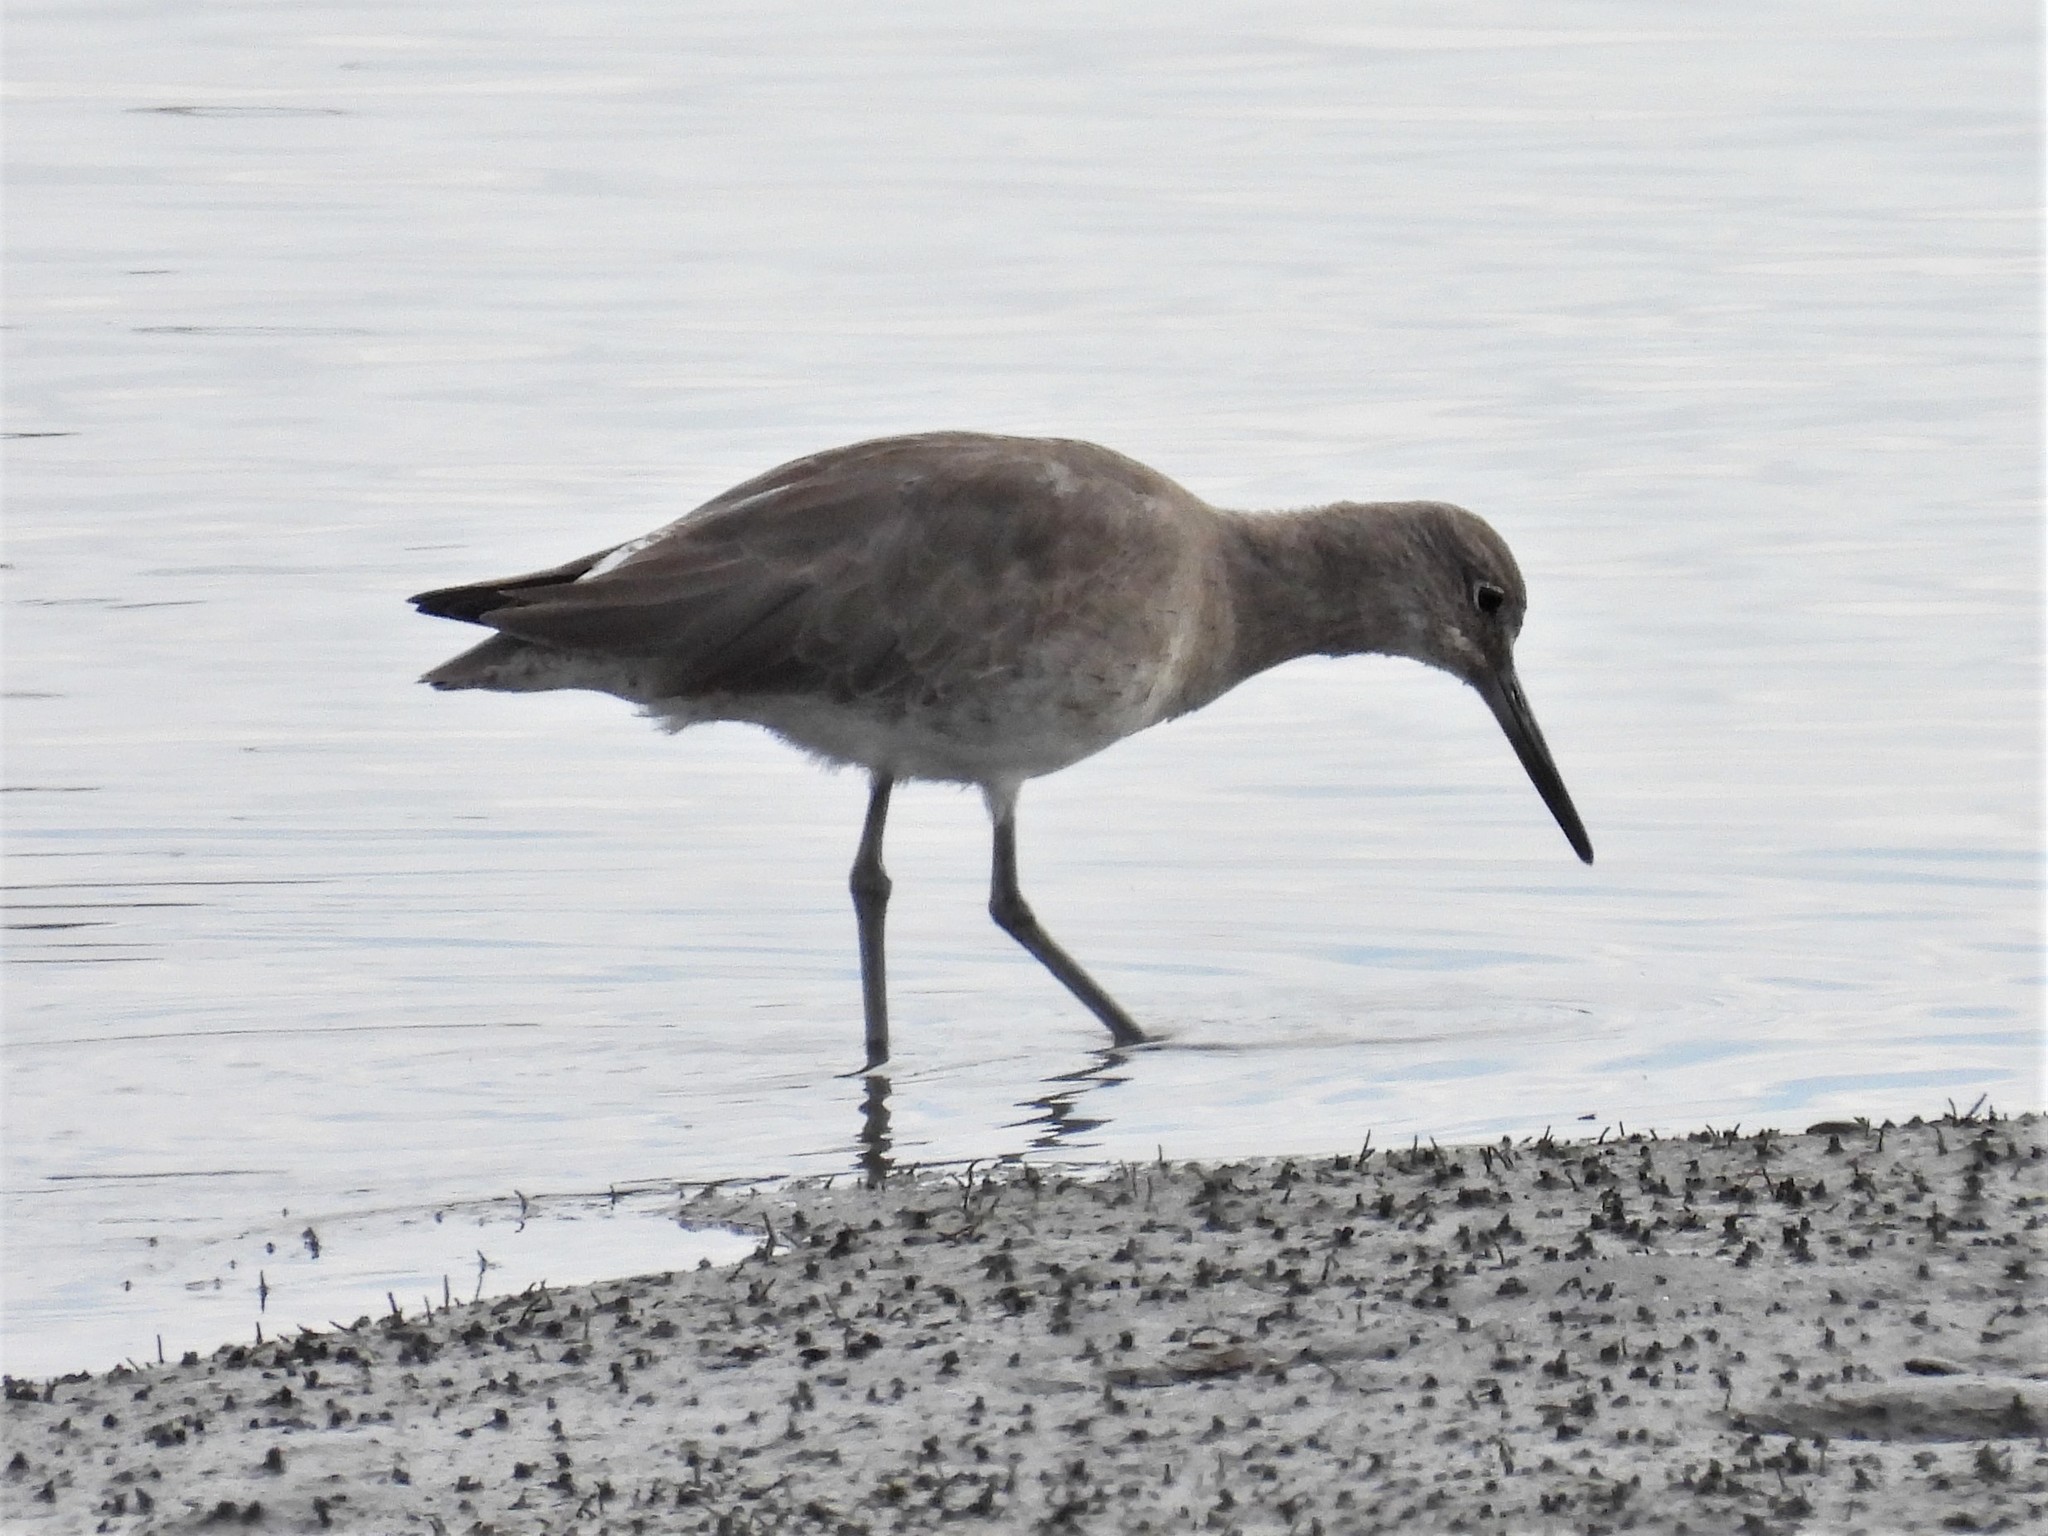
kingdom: Animalia
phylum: Chordata
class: Aves
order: Charadriiformes
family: Scolopacidae
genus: Tringa
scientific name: Tringa semipalmata
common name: Willet
